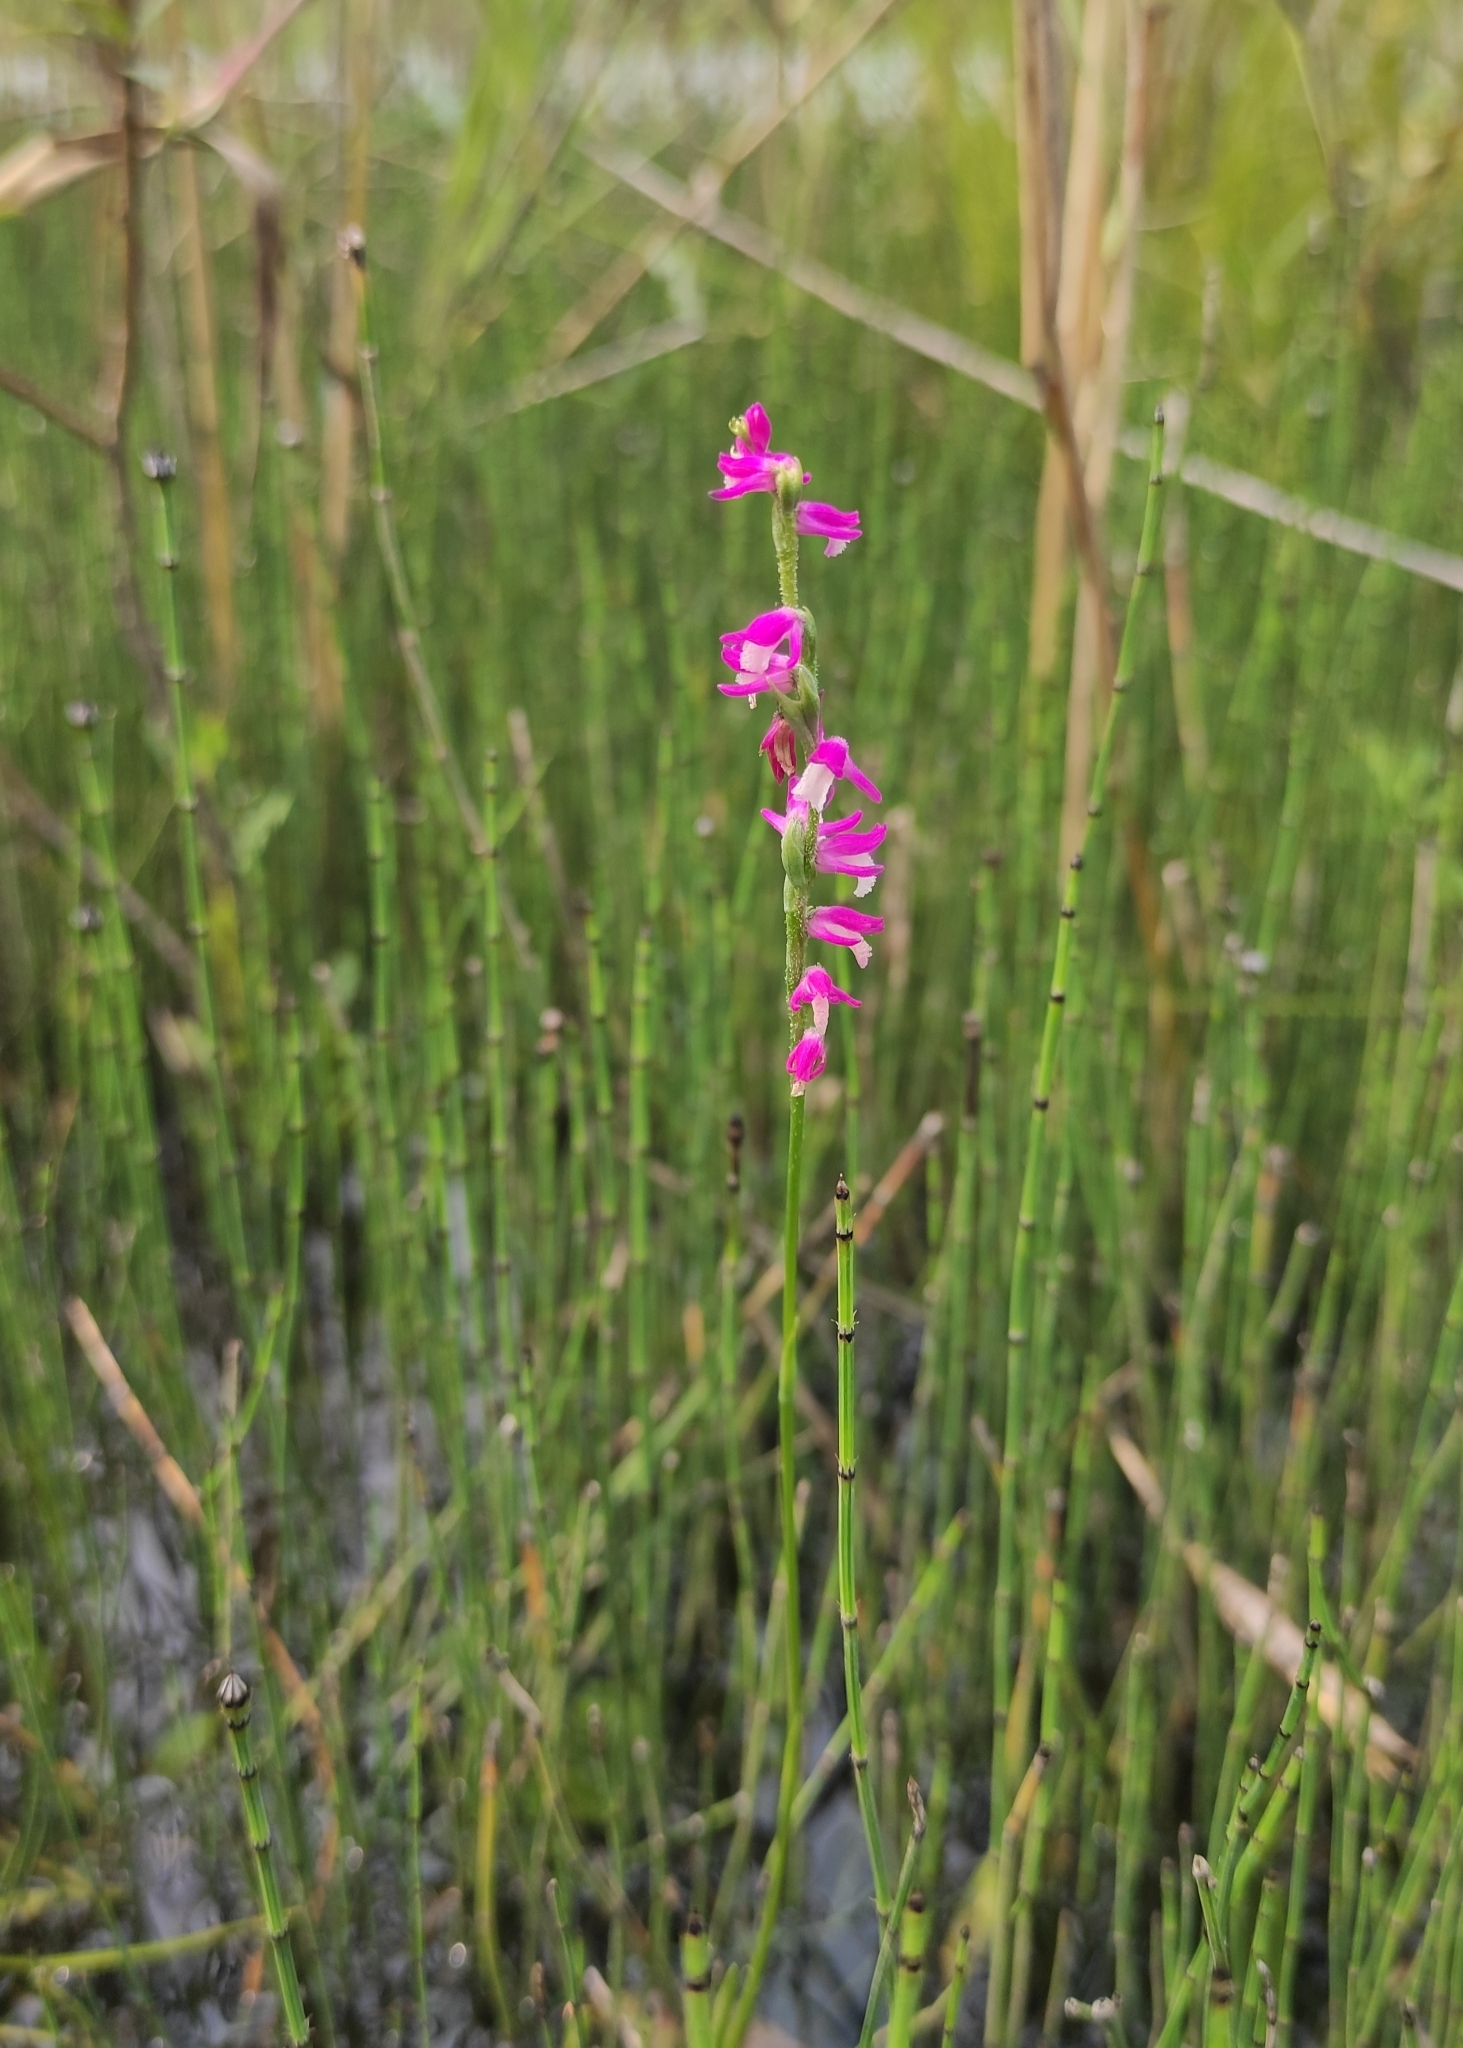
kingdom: Plantae
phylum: Tracheophyta
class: Liliopsida
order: Asparagales
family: Orchidaceae
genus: Spiranthes
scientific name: Spiranthes australis
